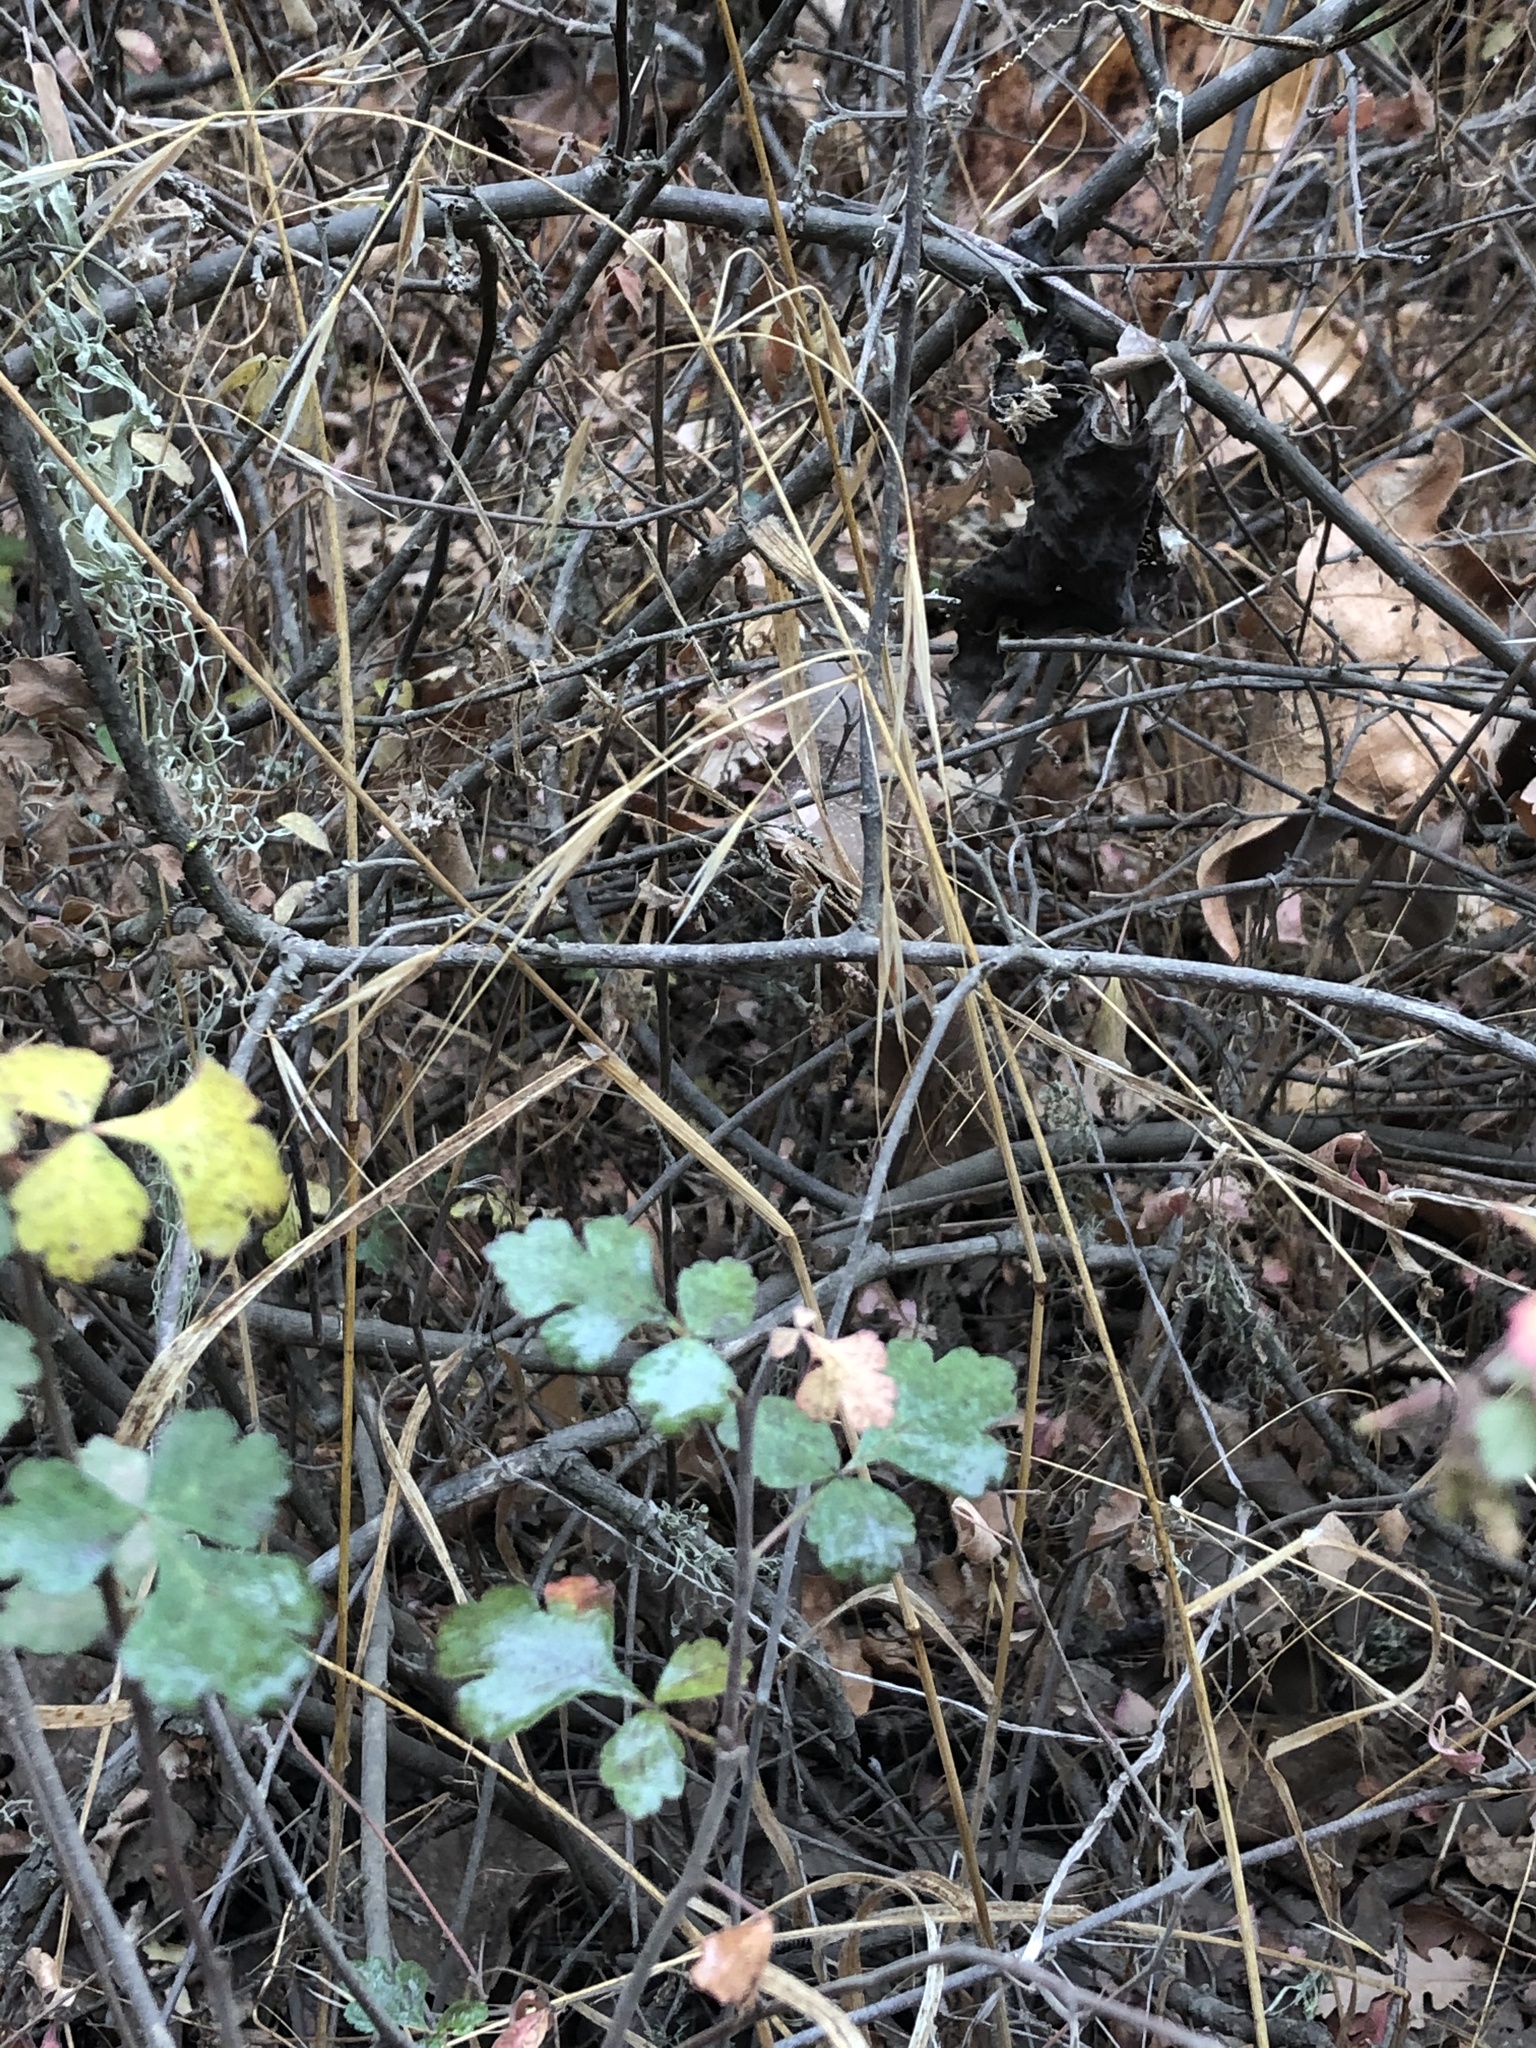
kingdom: Plantae
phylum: Tracheophyta
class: Magnoliopsida
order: Sapindales
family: Anacardiaceae
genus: Rhus
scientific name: Rhus aromatica
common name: Aromatic sumac
